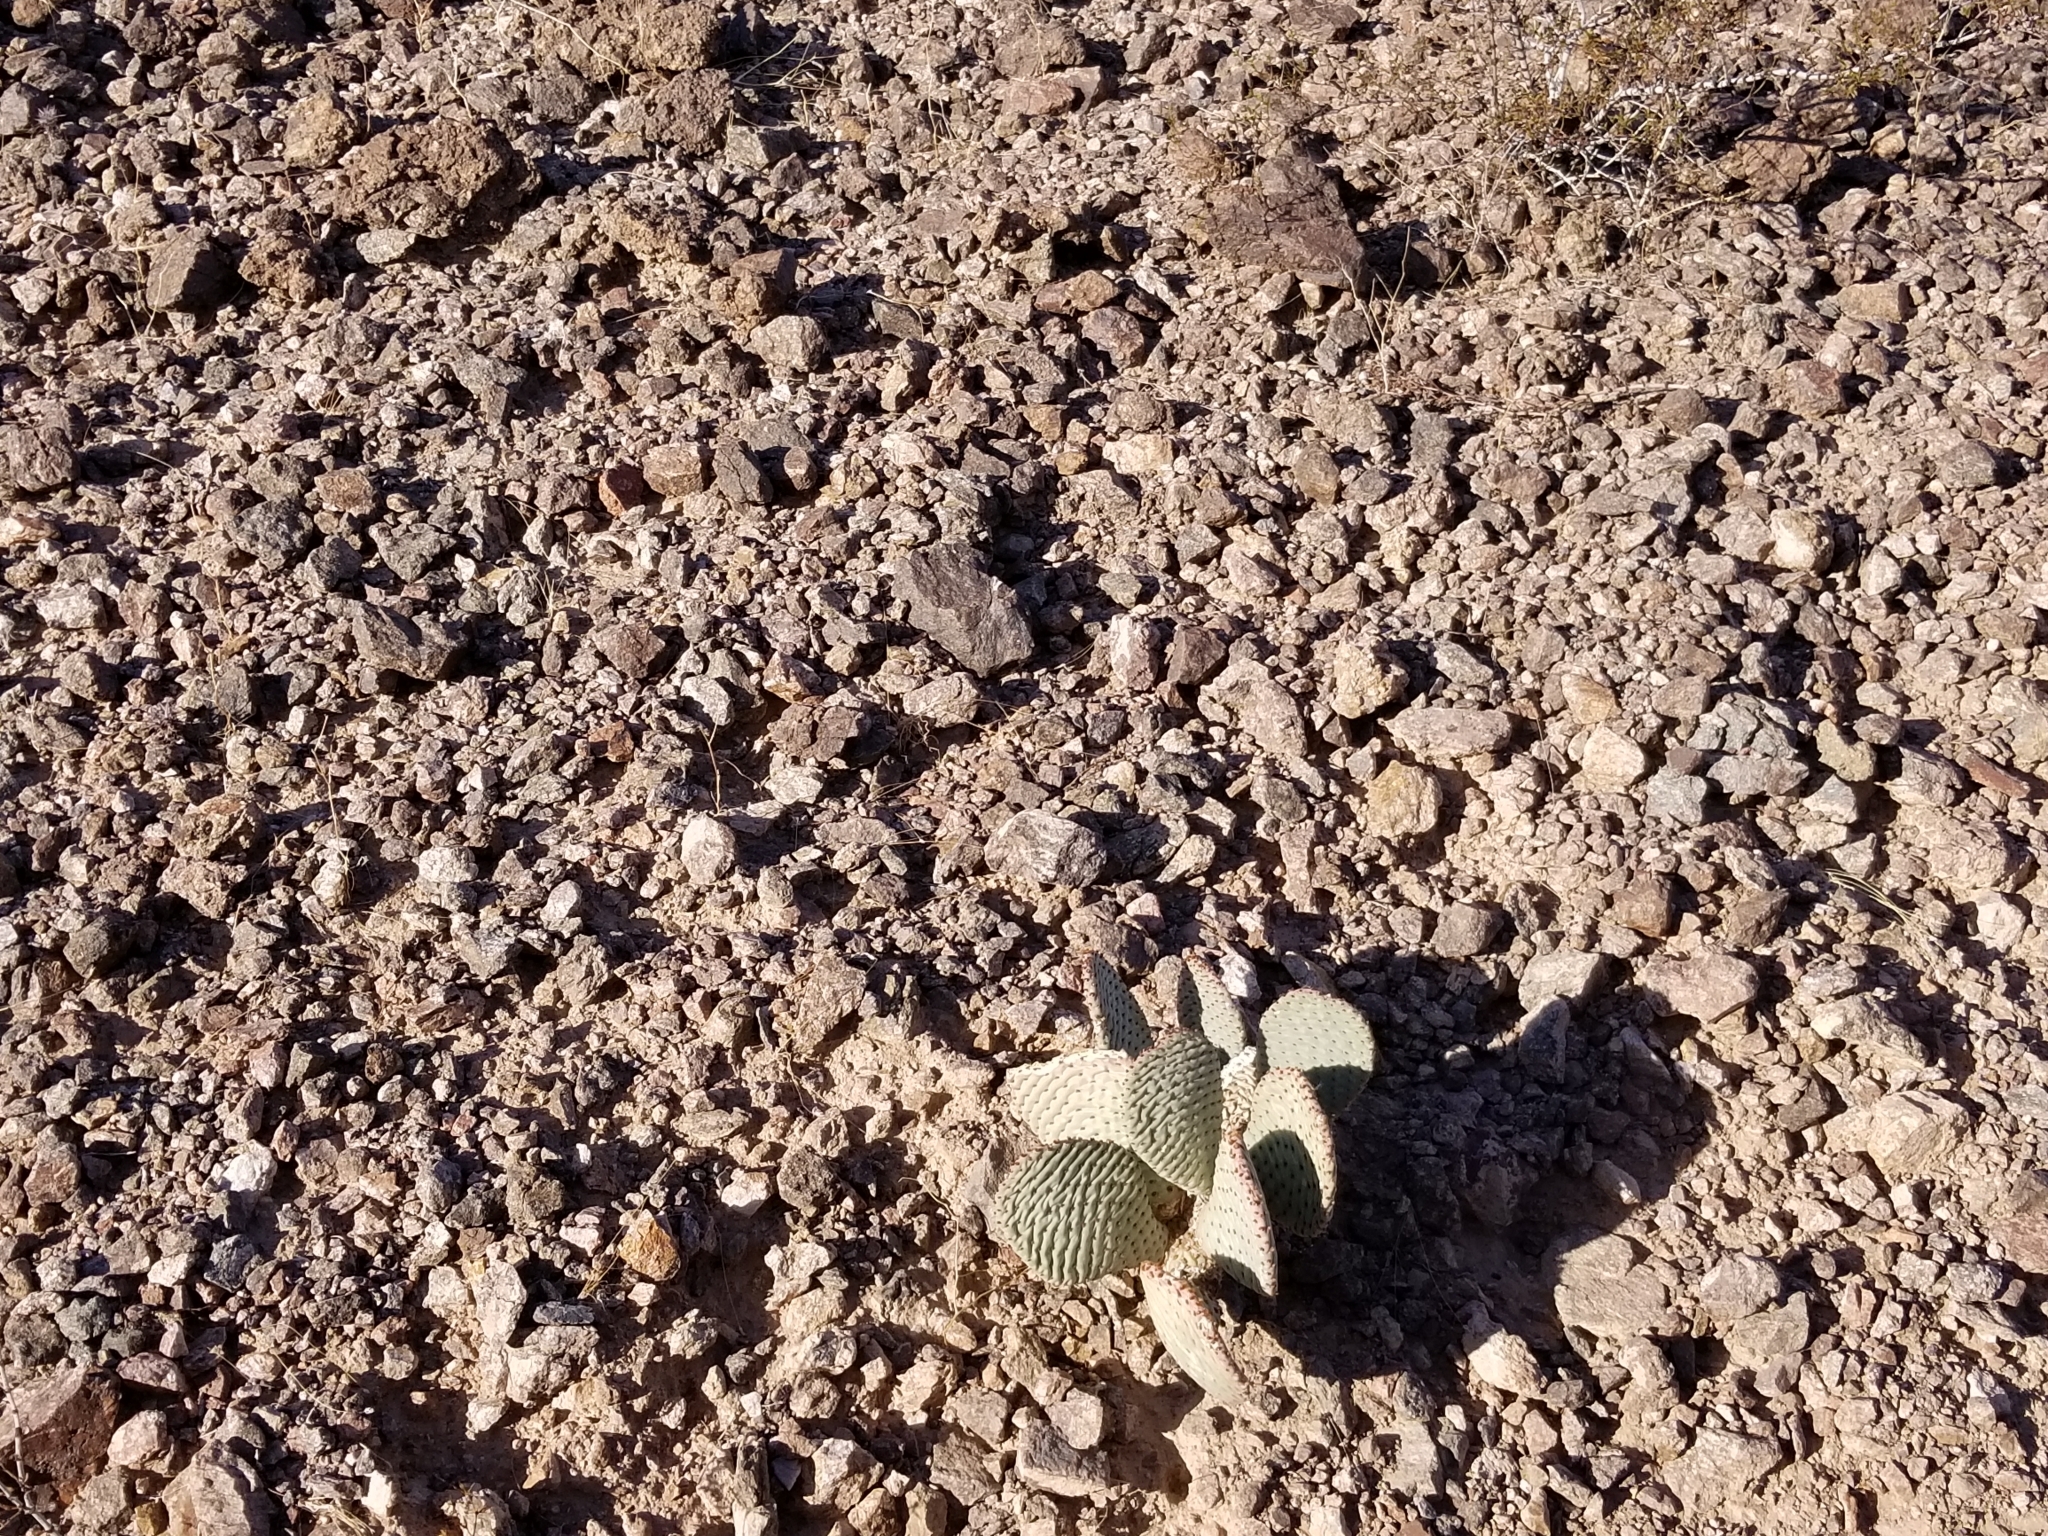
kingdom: Plantae
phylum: Tracheophyta
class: Magnoliopsida
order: Caryophyllales
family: Cactaceae
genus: Opuntia
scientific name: Opuntia basilaris
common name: Beavertail prickly-pear
